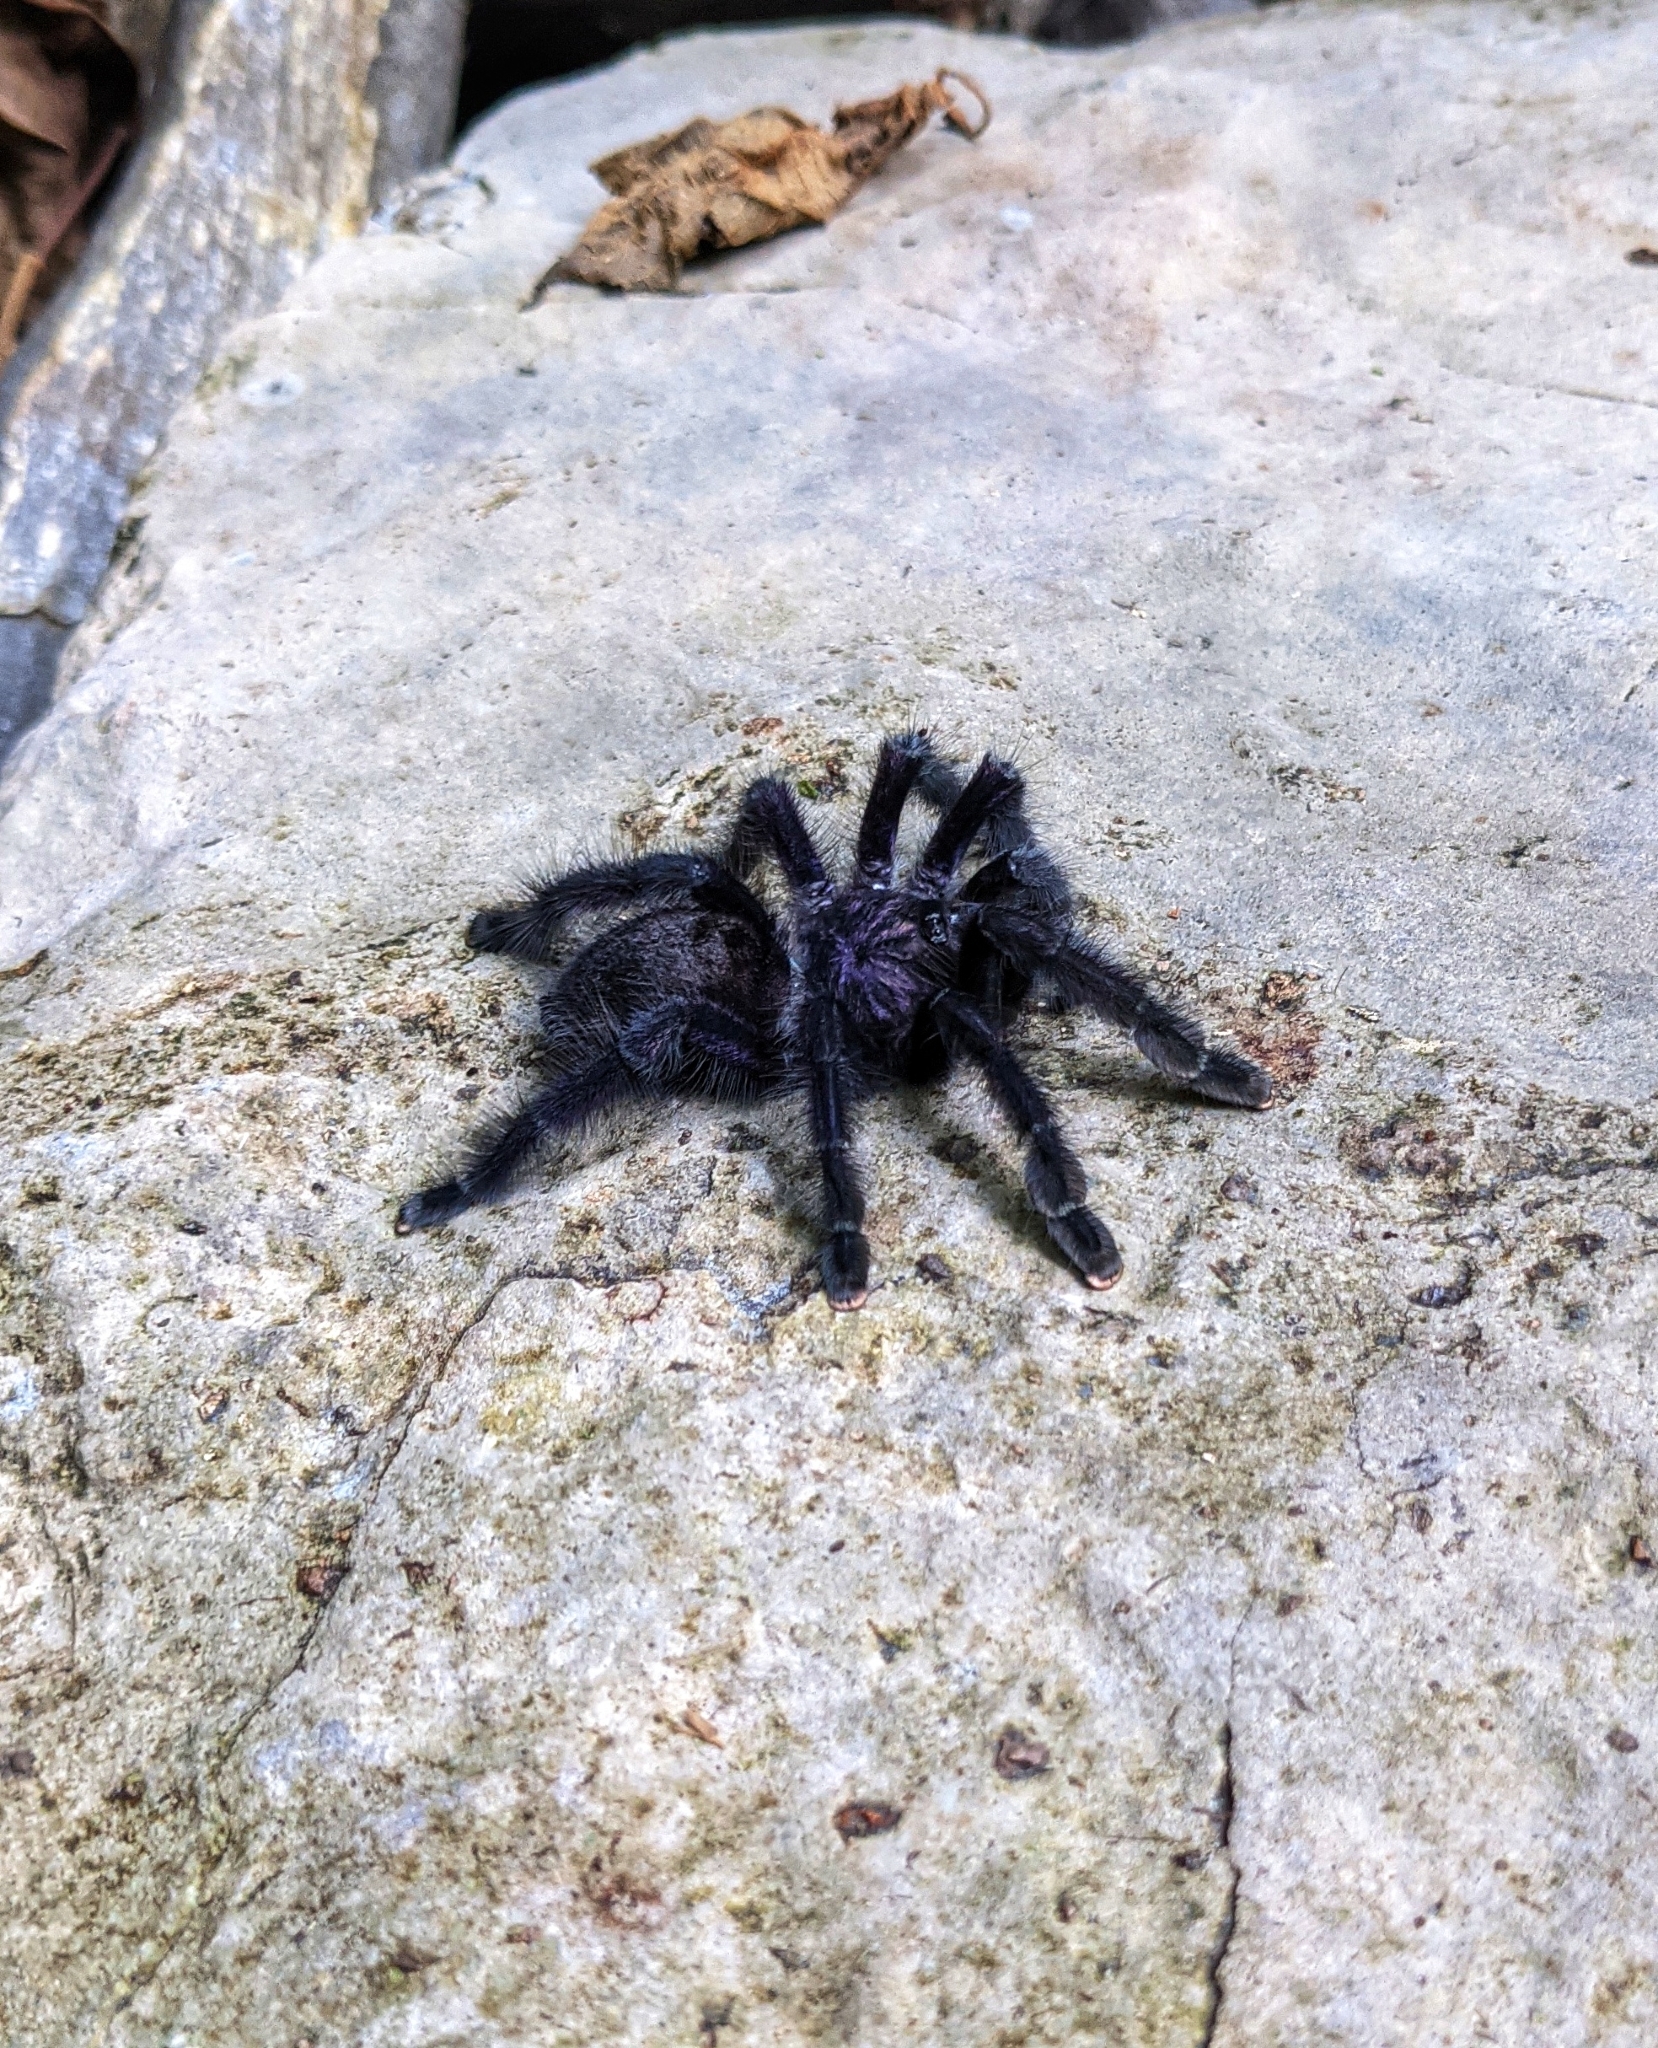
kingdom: Animalia
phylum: Arthropoda
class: Arachnida
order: Araneae
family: Theraphosidae
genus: Avicularia
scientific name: Avicularia purpurea
